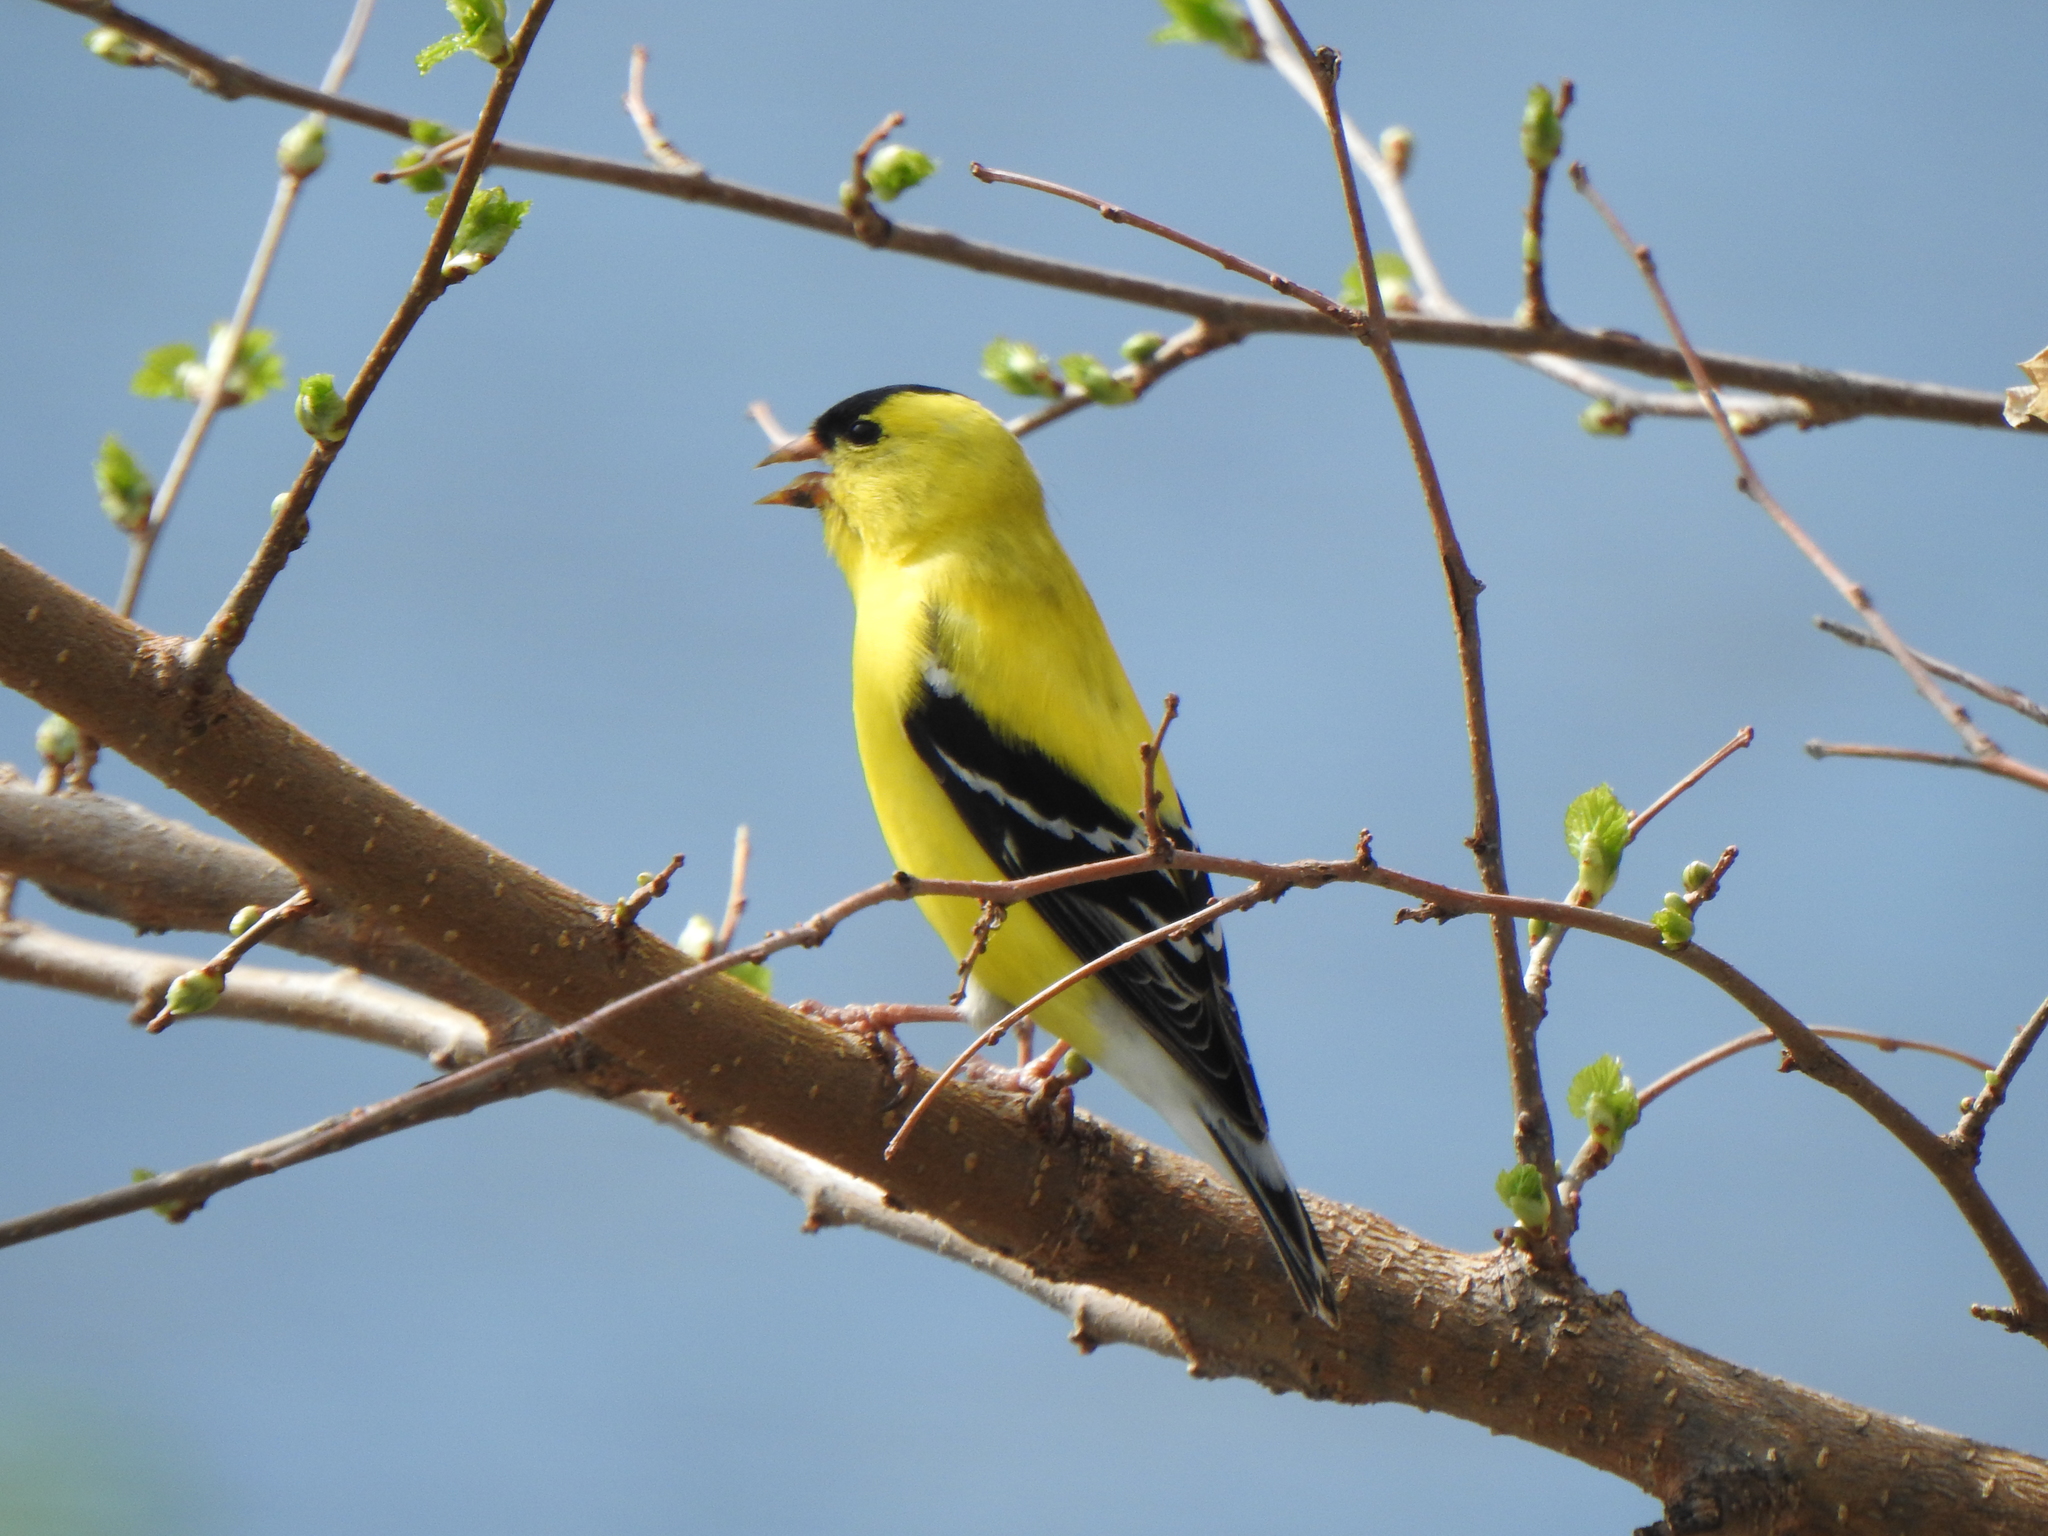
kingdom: Animalia
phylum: Chordata
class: Aves
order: Passeriformes
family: Fringillidae
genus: Spinus
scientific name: Spinus tristis
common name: American goldfinch
